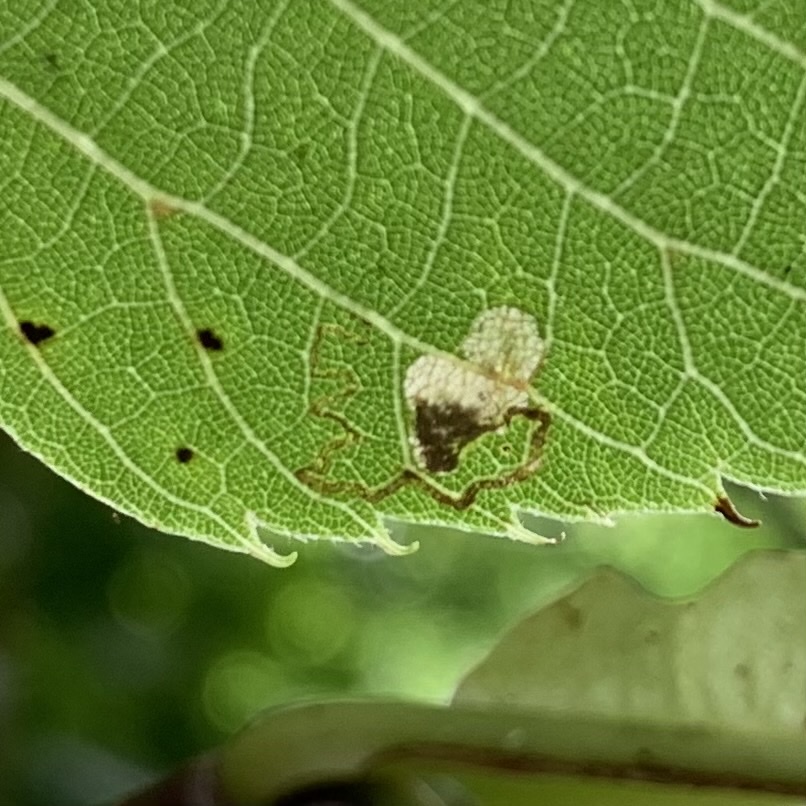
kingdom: Animalia
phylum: Arthropoda
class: Insecta
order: Lepidoptera
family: Nepticulidae
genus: Stigmella
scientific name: Stigmella argentifasciella
